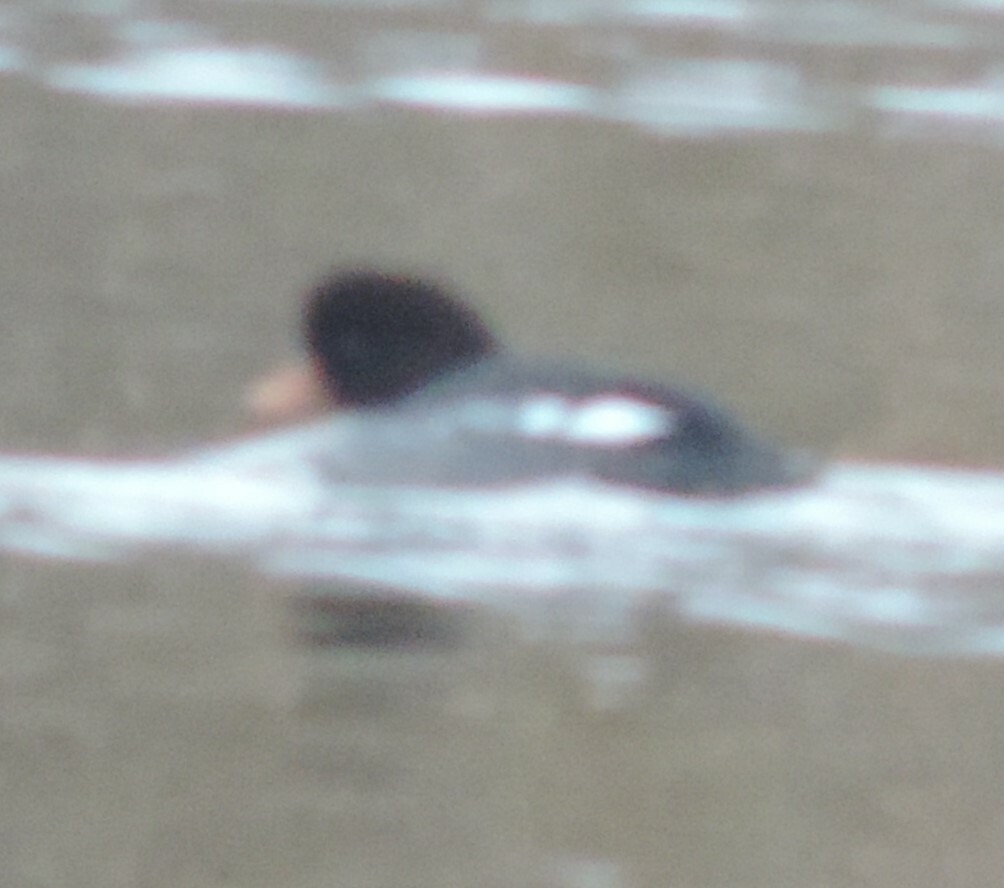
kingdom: Animalia
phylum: Chordata
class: Aves
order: Anseriformes
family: Anatidae
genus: Bucephala
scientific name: Bucephala islandica
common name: Barrow's goldeneye
